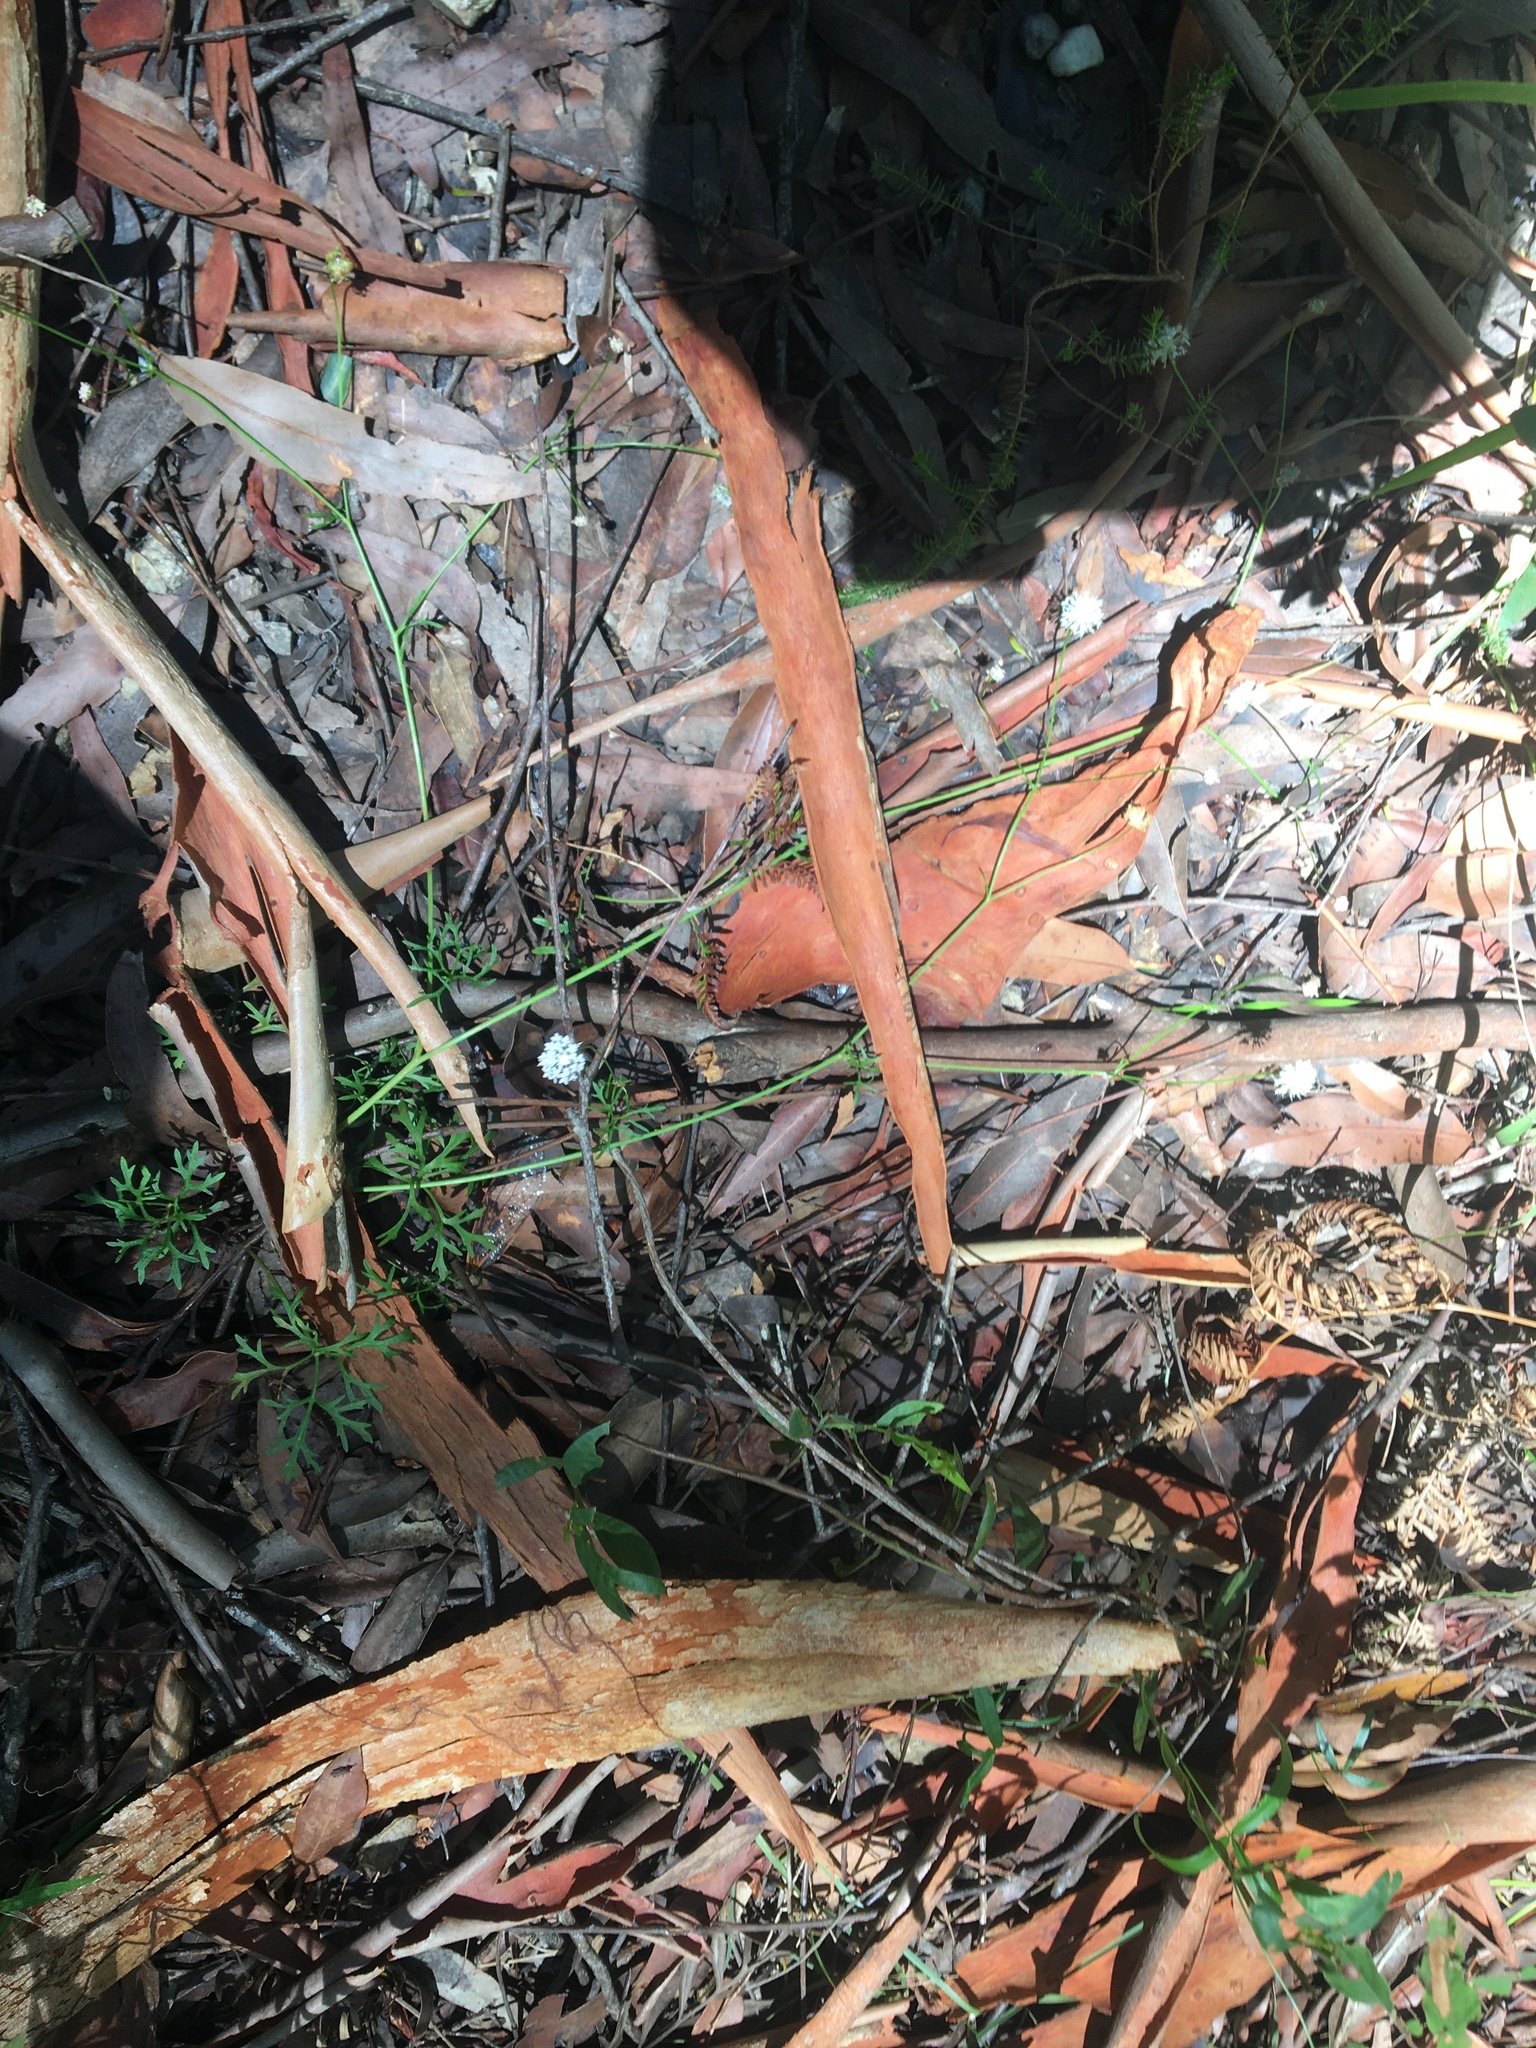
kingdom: Plantae
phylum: Tracheophyta
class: Magnoliopsida
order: Apiales
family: Araliaceae
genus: Trachymene
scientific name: Trachymene incisa
